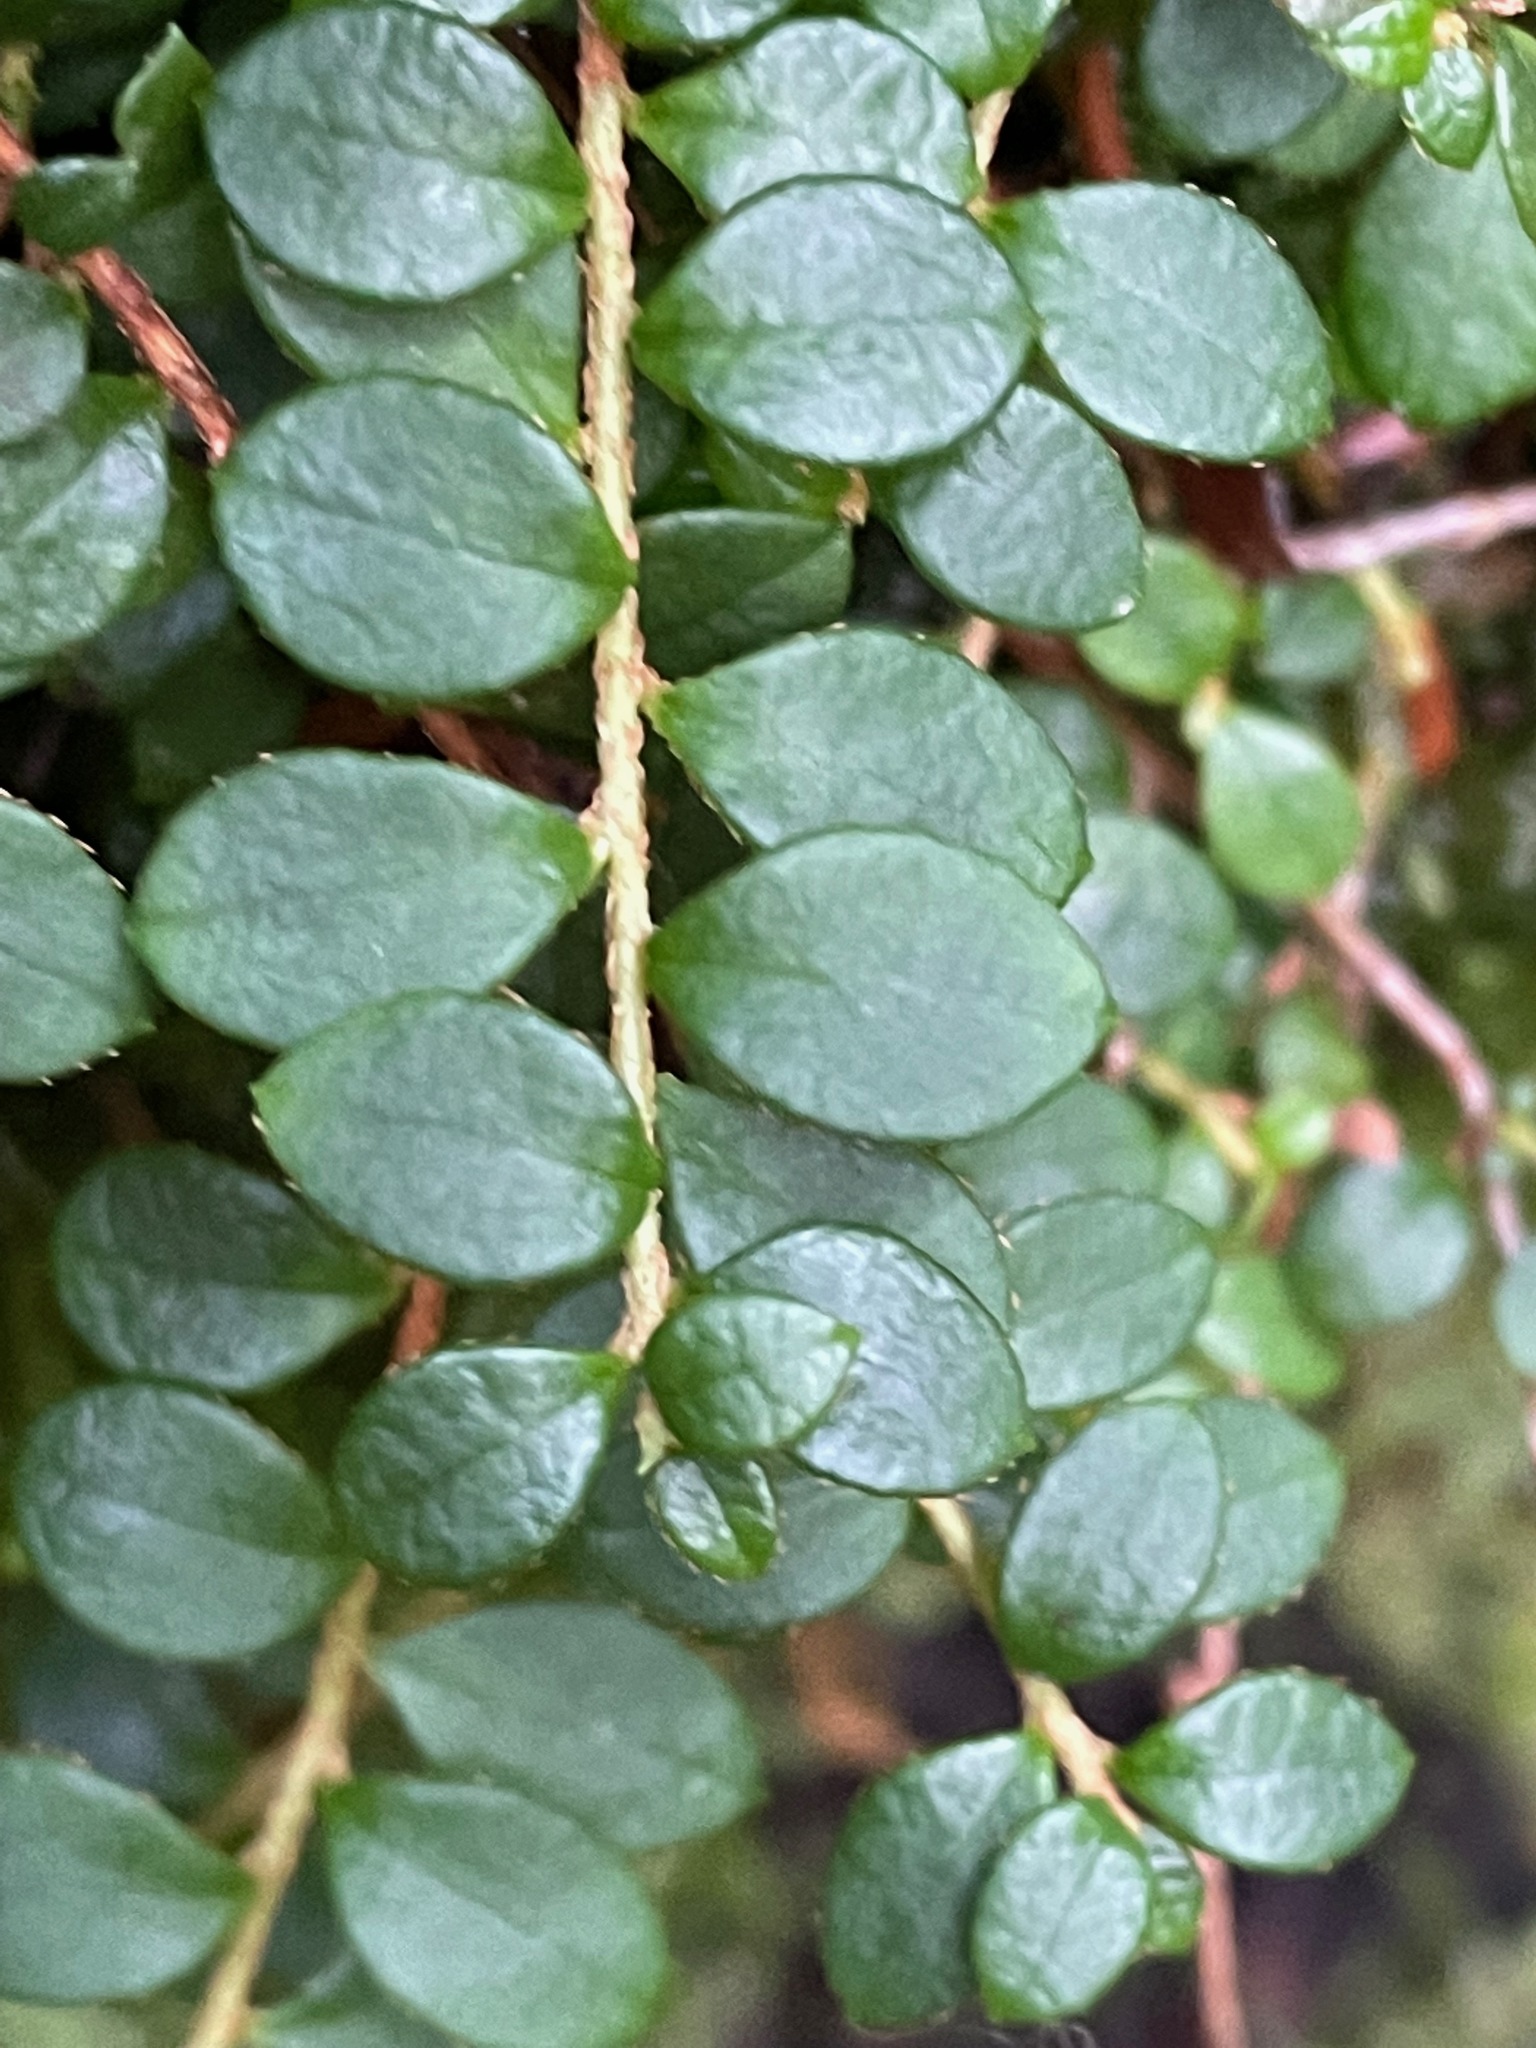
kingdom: Plantae
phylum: Tracheophyta
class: Magnoliopsida
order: Ericales
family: Ericaceae
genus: Gaultheria
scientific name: Gaultheria hispidula
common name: Cancer wintergreen
